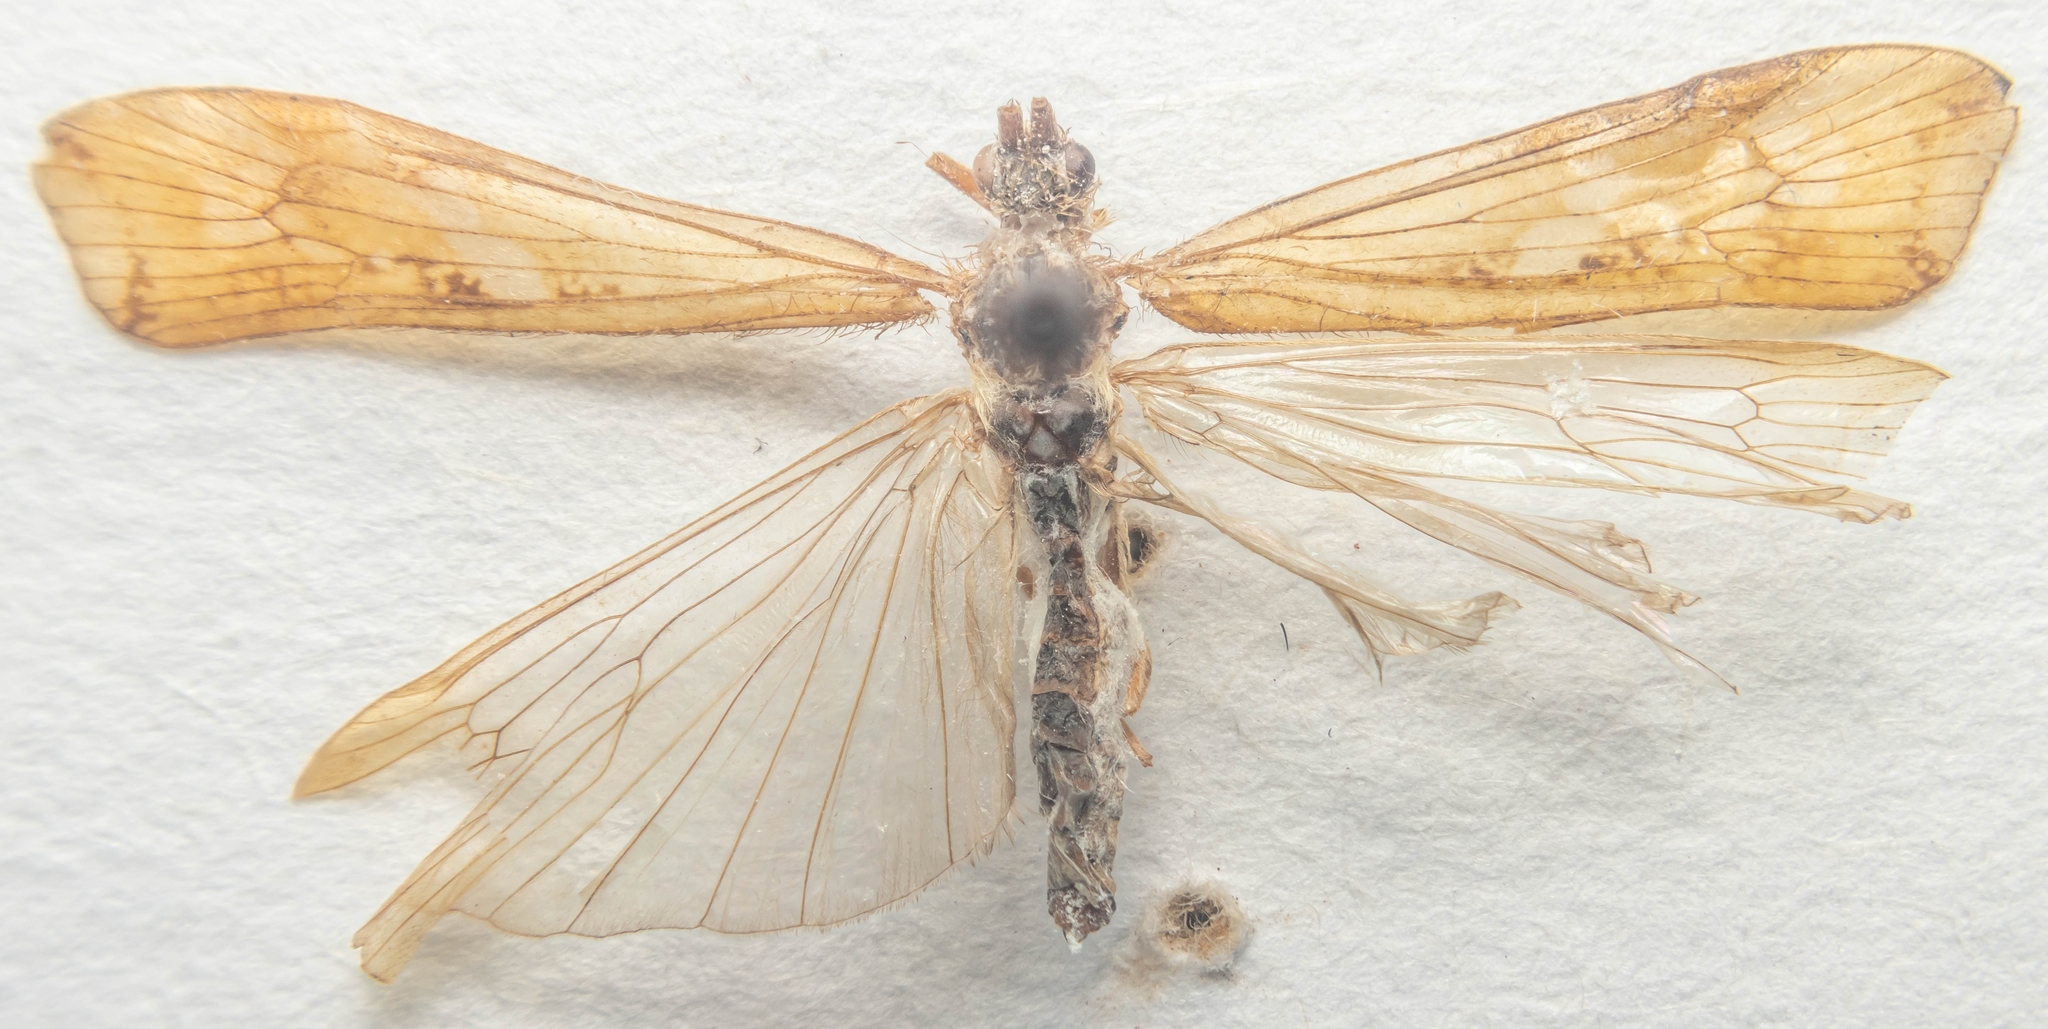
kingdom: Animalia
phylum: Arthropoda
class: Insecta
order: Trichoptera
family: Limnephilidae
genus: Limnephilus
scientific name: Limnephilus lunatus
